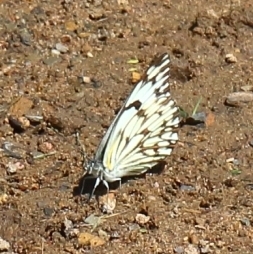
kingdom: Animalia
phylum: Arthropoda
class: Insecta
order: Lepidoptera
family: Pieridae
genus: Belenois
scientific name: Belenois gidica
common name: Pointed caper white
